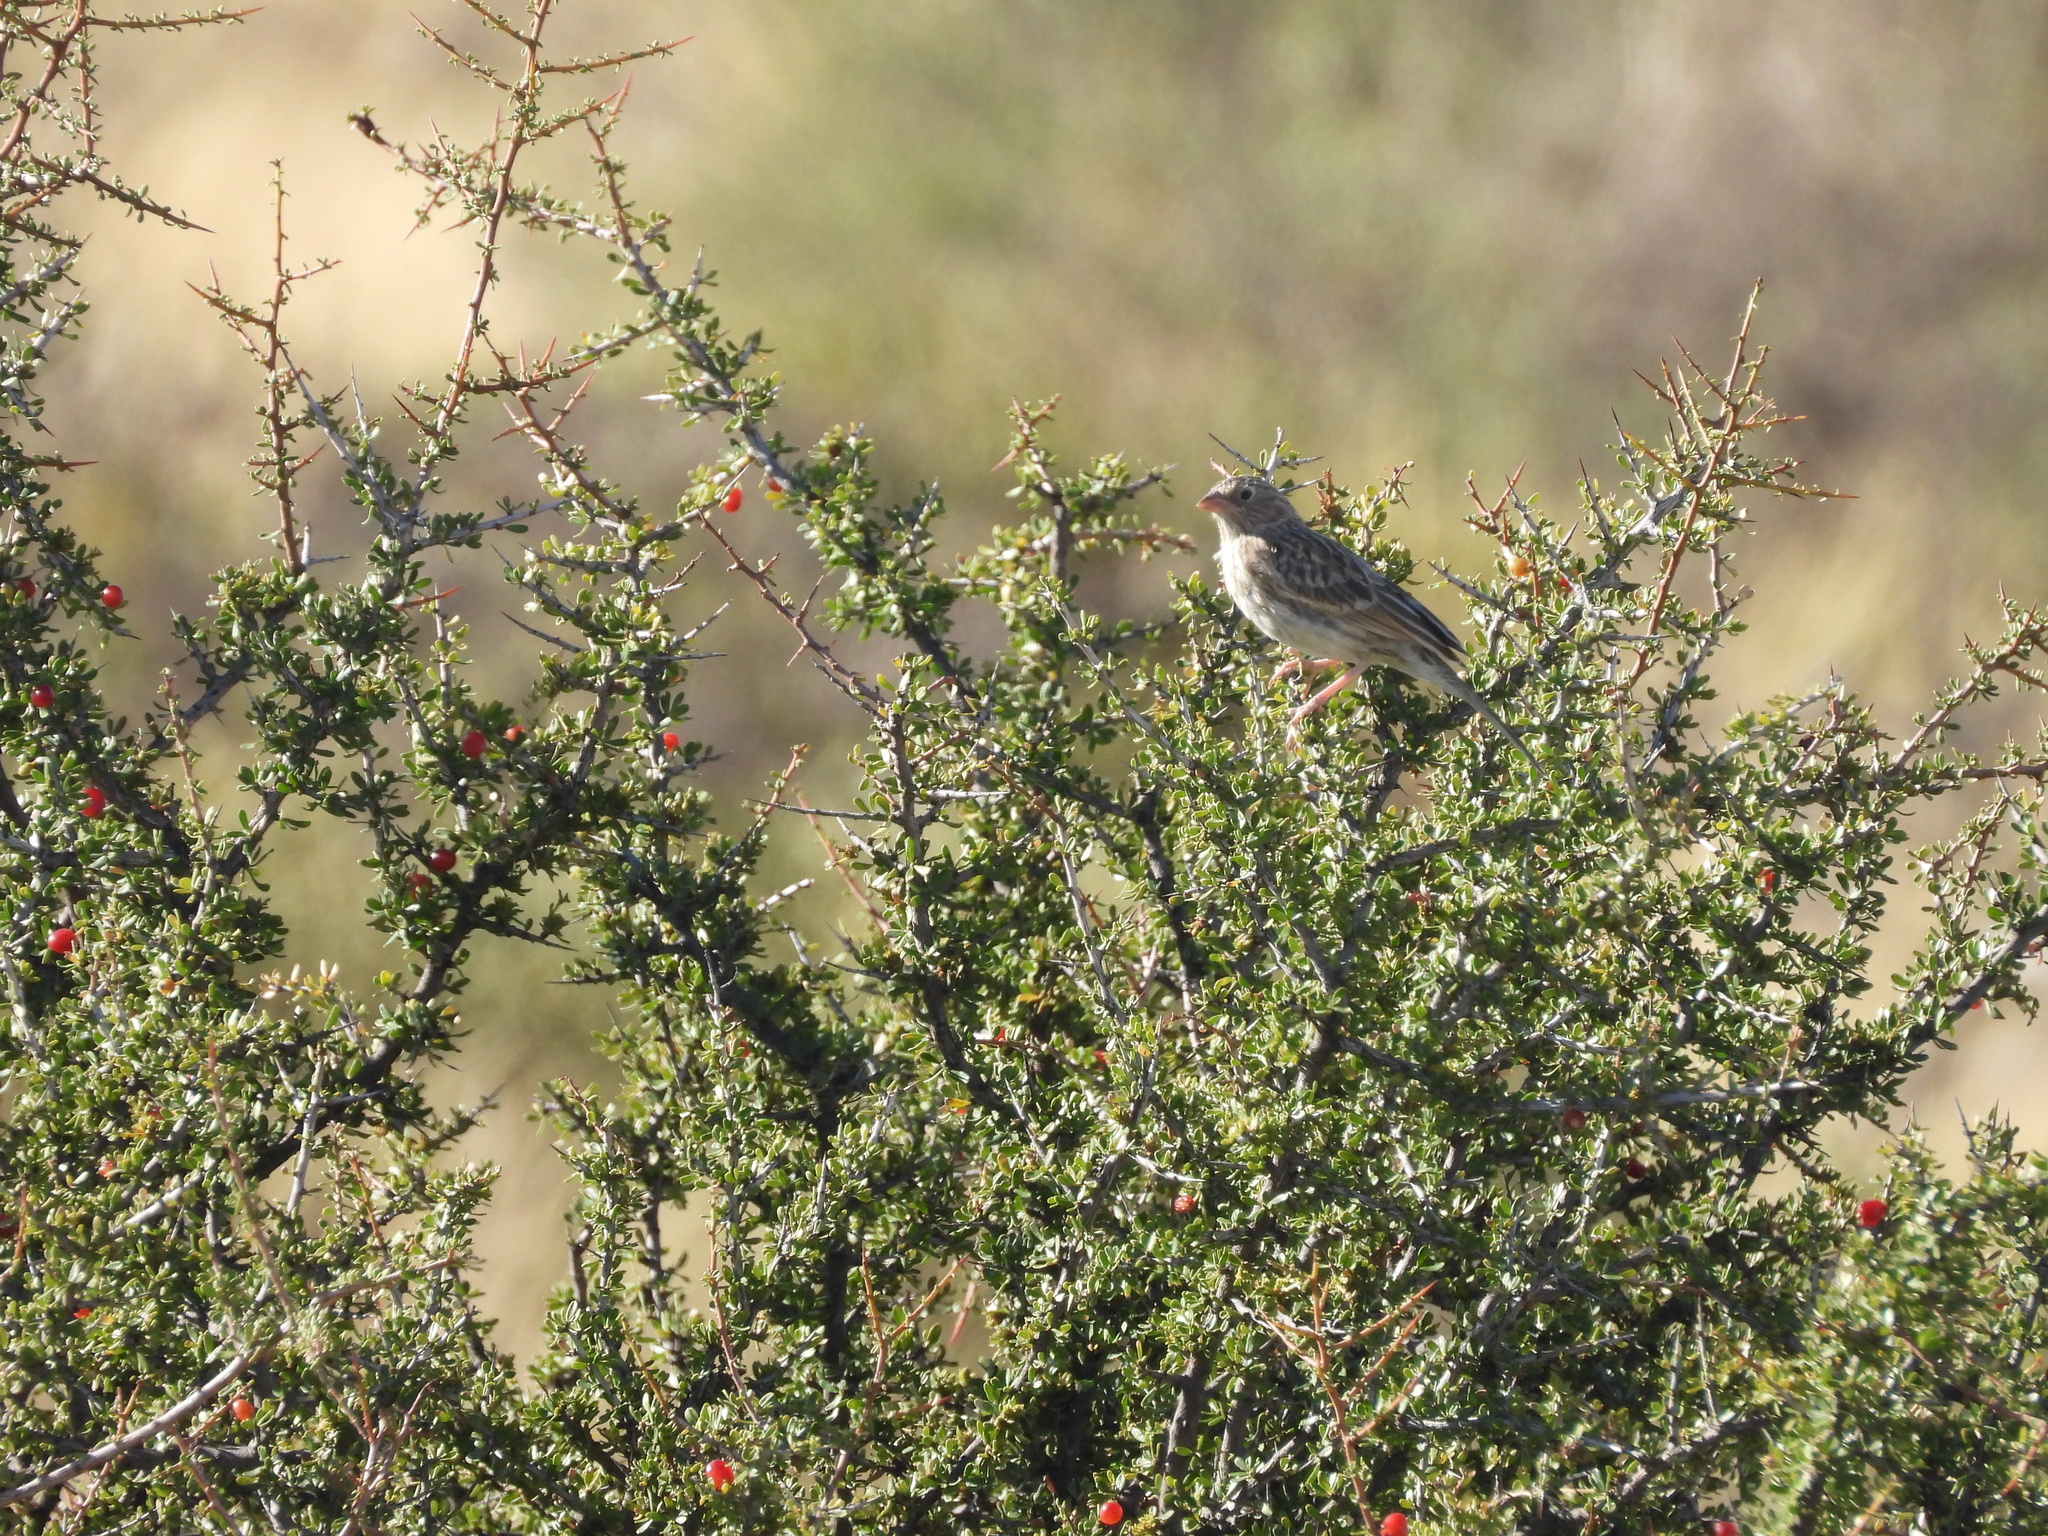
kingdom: Animalia
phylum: Chordata
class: Aves
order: Passeriformes
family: Thraupidae
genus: Porphyrospiza
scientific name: Porphyrospiza carbonaria
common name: Carbon finch
